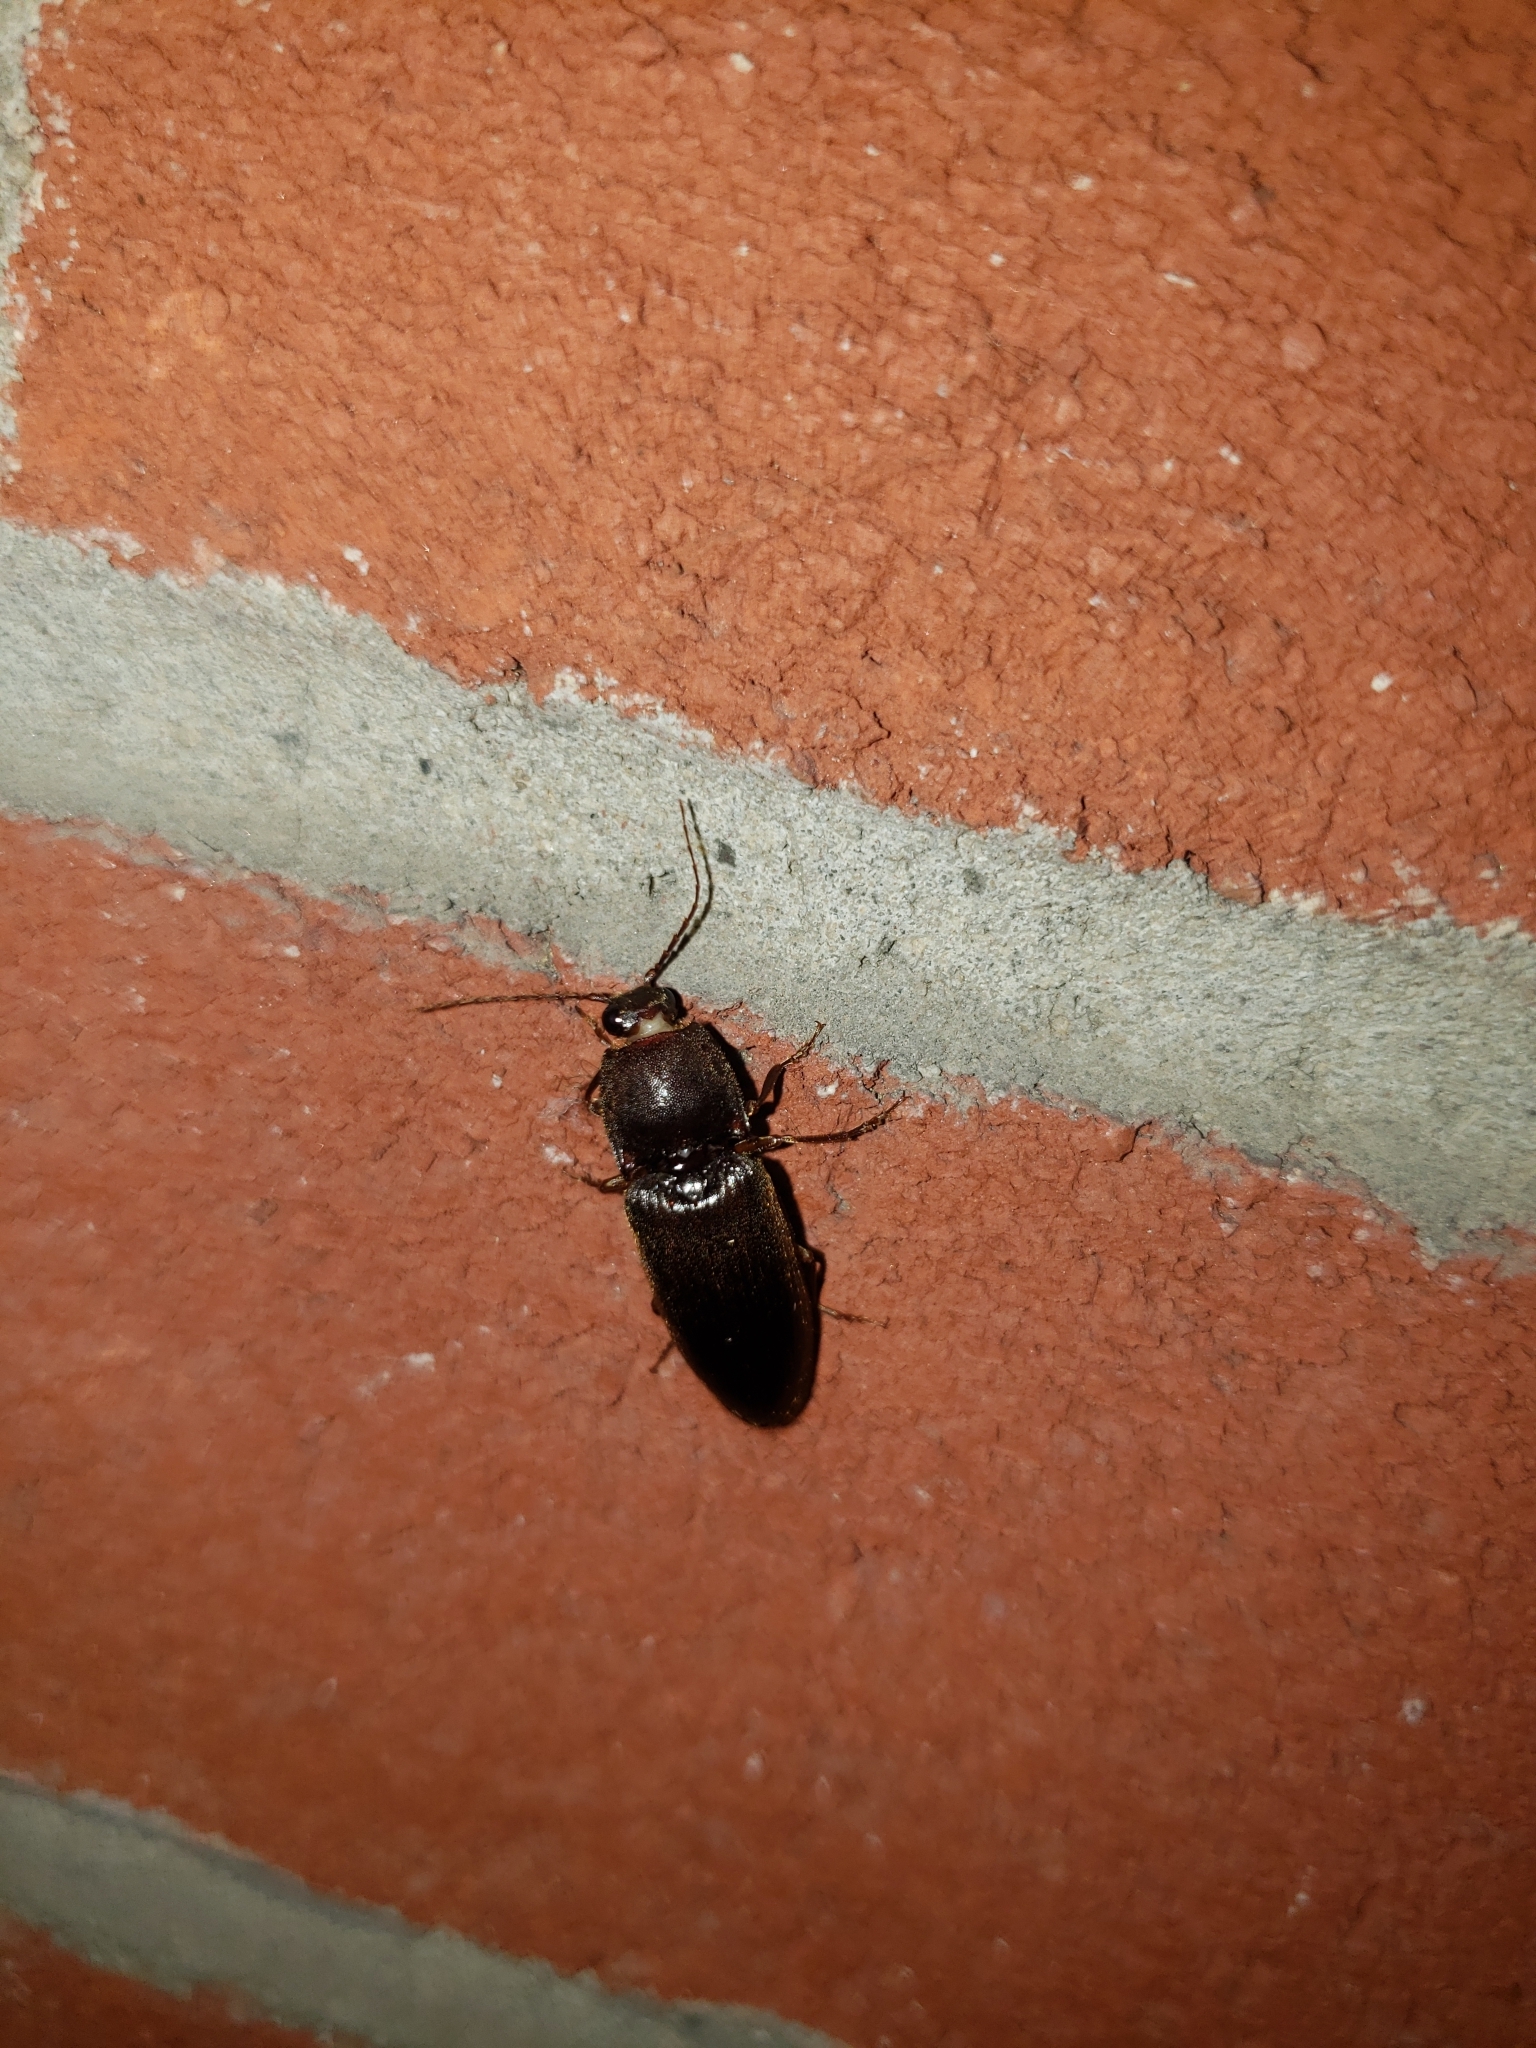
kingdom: Animalia
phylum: Arthropoda
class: Insecta
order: Coleoptera
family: Elateridae
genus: Hemicrepidius
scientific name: Hemicrepidius
